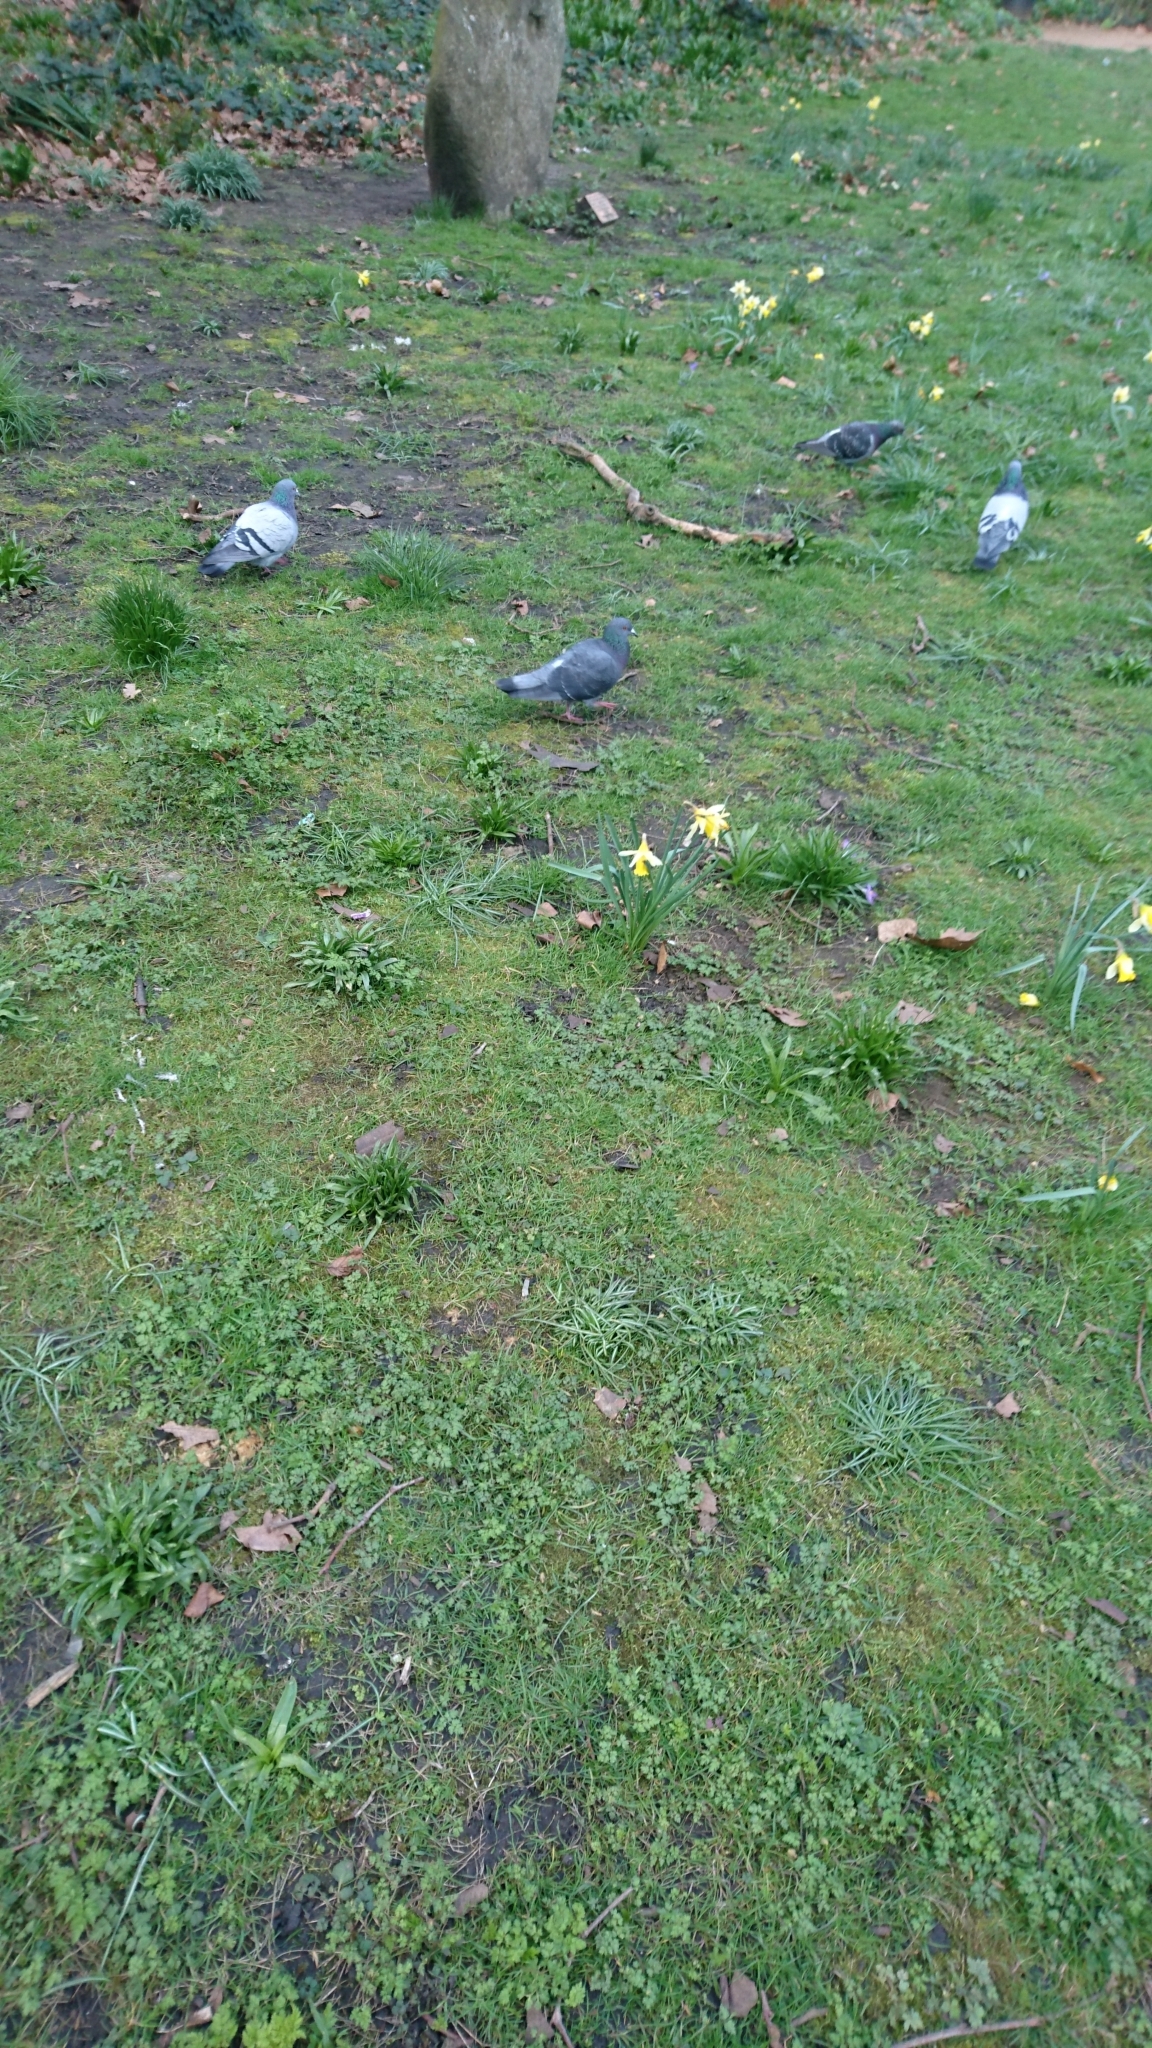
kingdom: Animalia
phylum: Chordata
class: Aves
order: Columbiformes
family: Columbidae
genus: Columba
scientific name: Columba livia
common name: Rock pigeon
